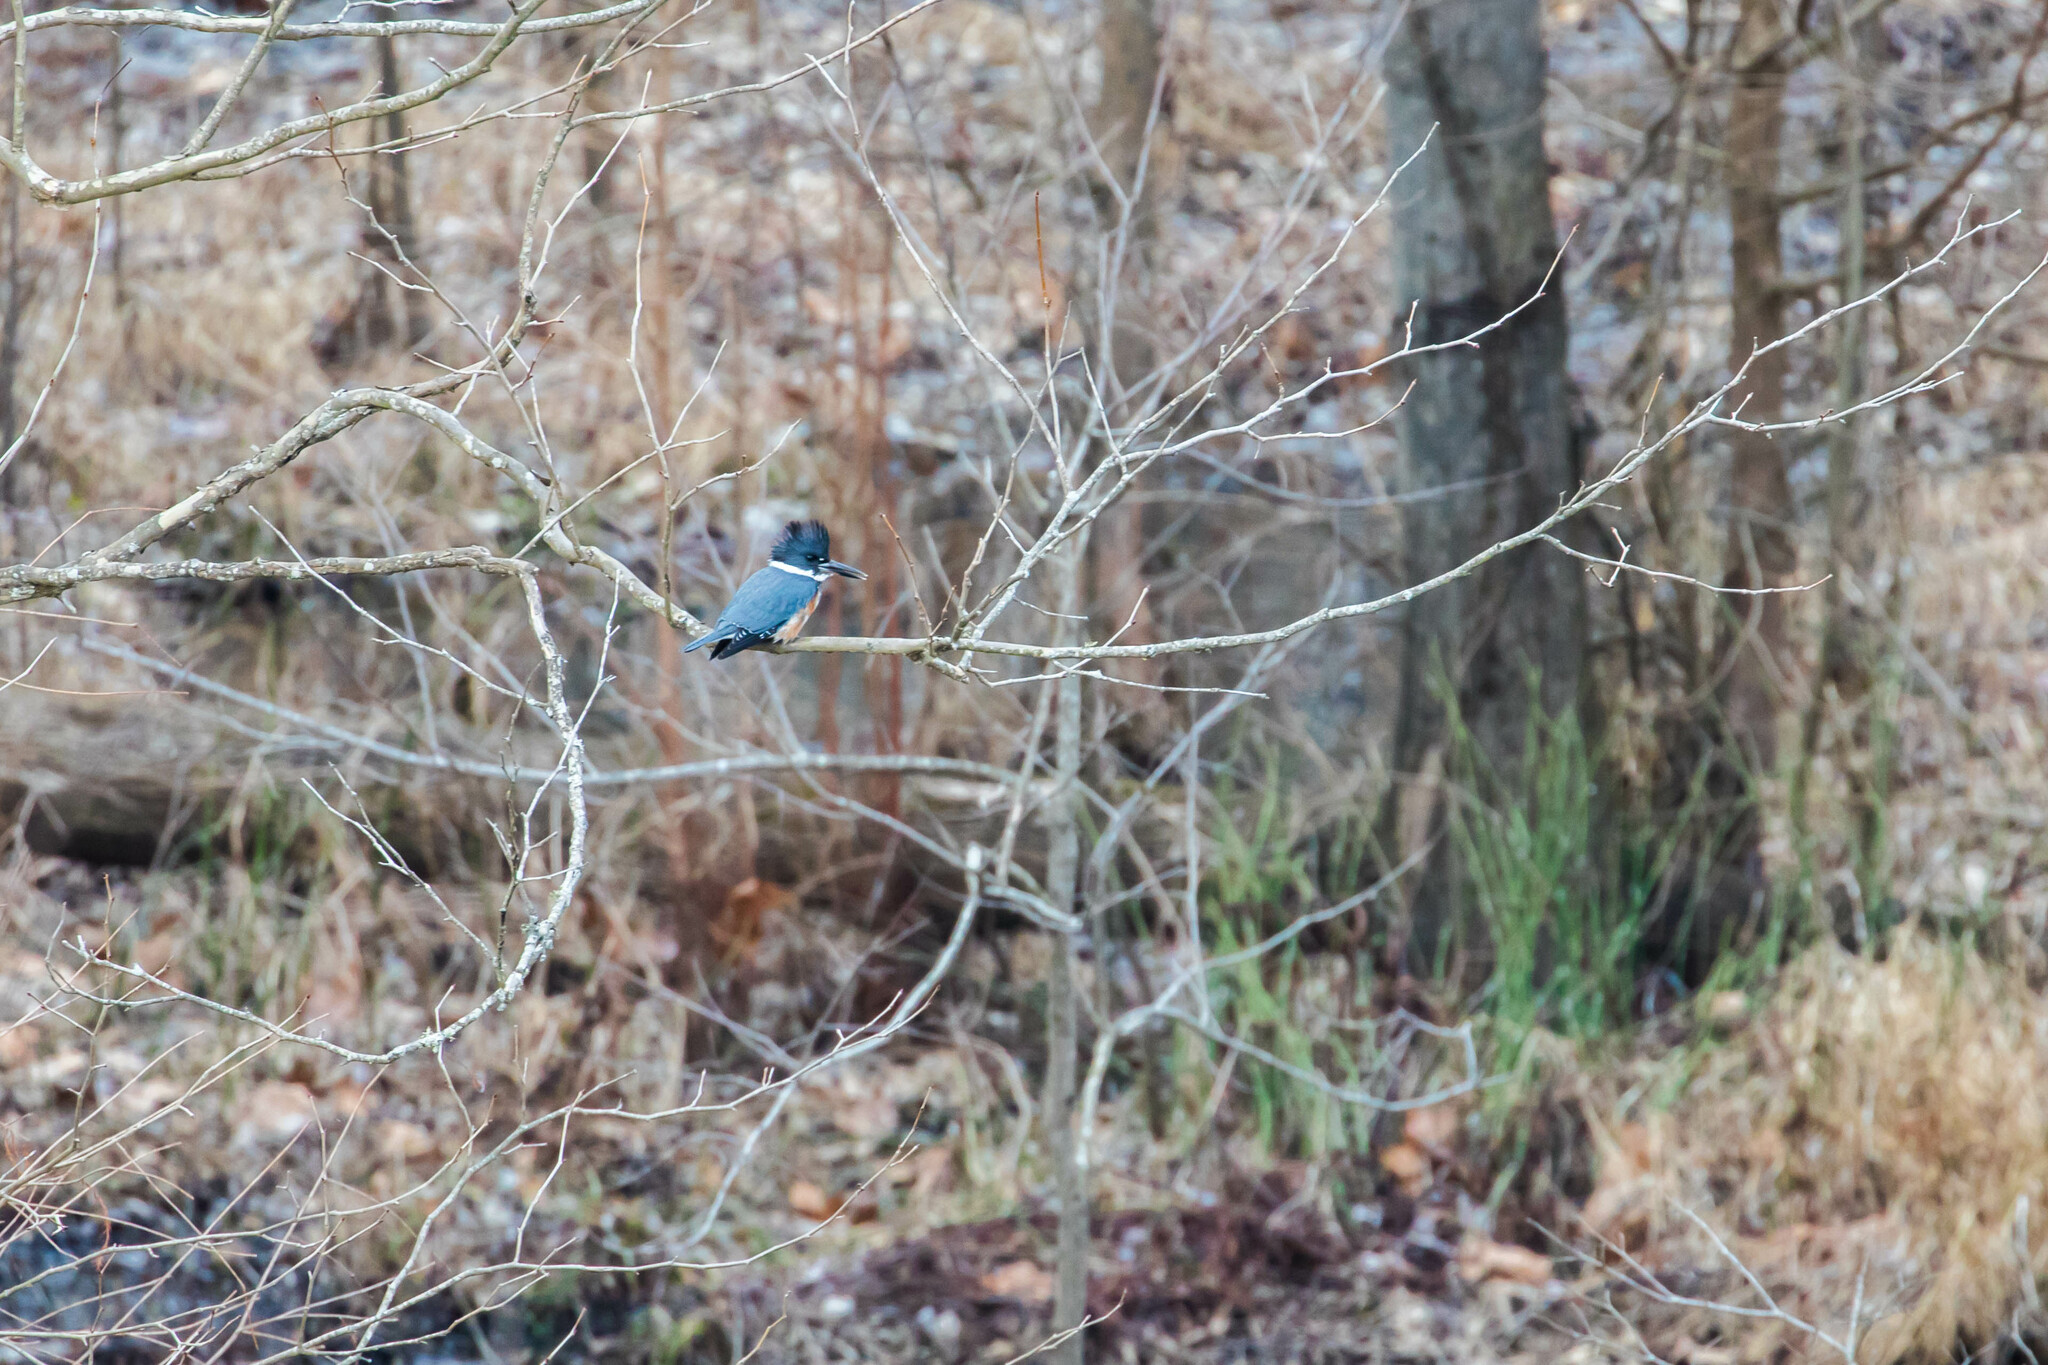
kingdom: Animalia
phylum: Chordata
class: Aves
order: Coraciiformes
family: Alcedinidae
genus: Megaceryle
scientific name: Megaceryle alcyon
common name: Belted kingfisher
